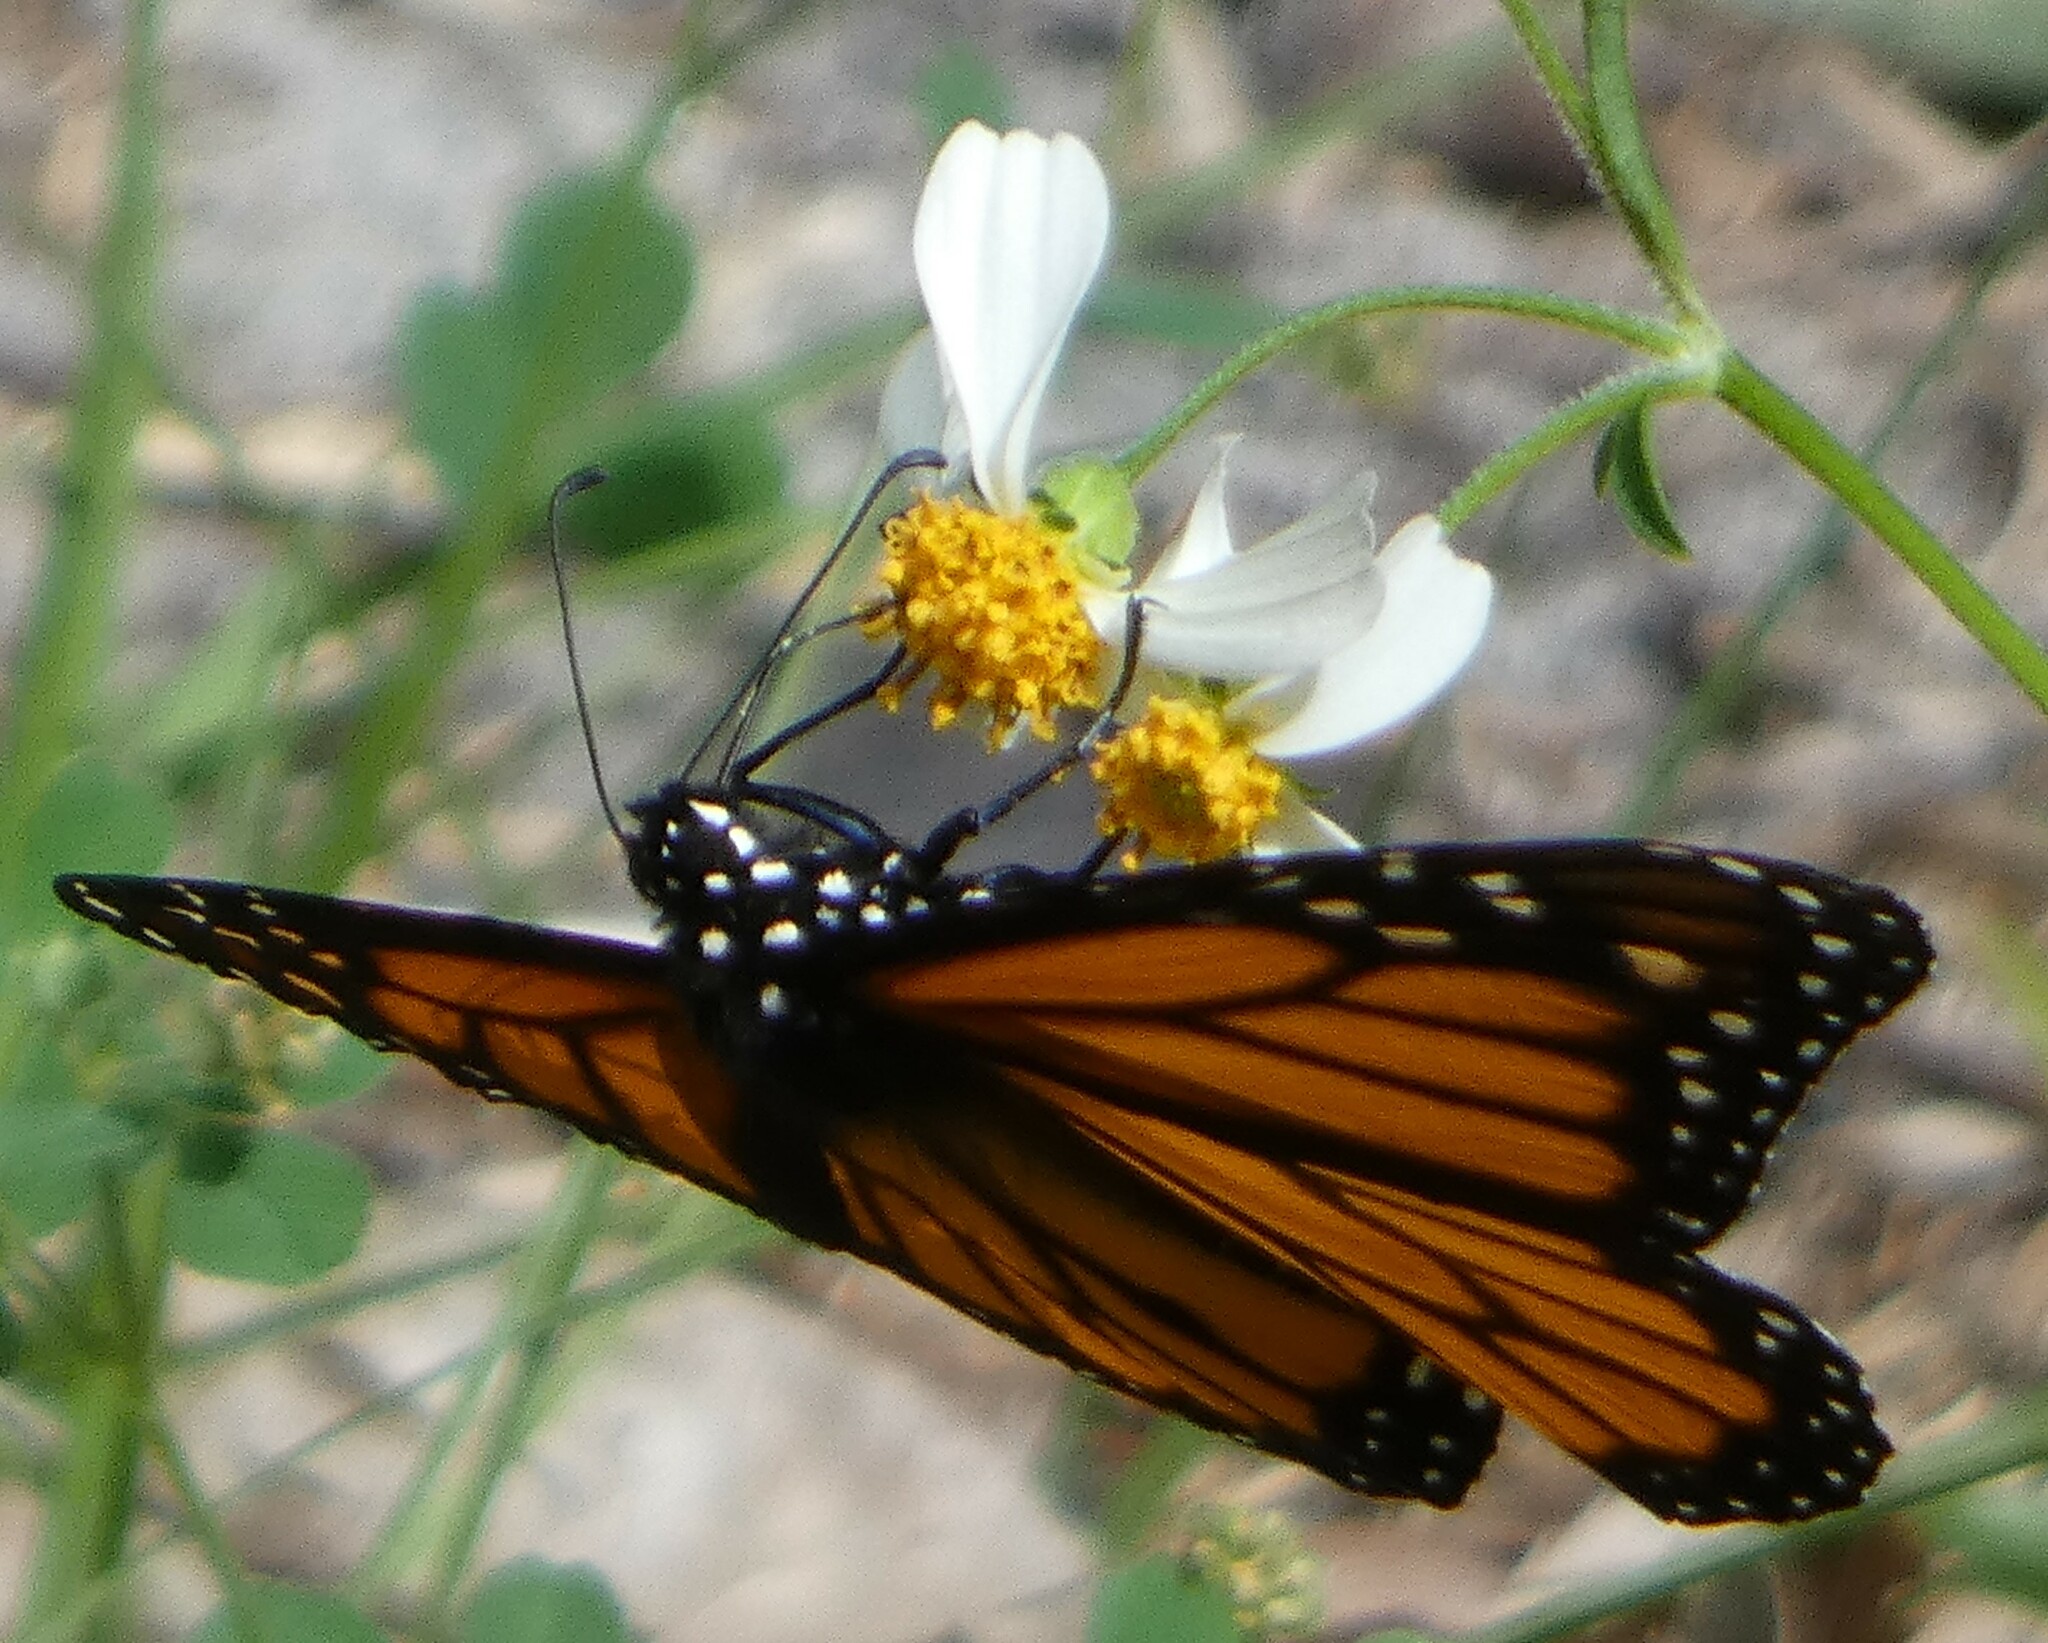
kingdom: Animalia
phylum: Arthropoda
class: Insecta
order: Lepidoptera
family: Nymphalidae
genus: Danaus
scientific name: Danaus plexippus
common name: Monarch
